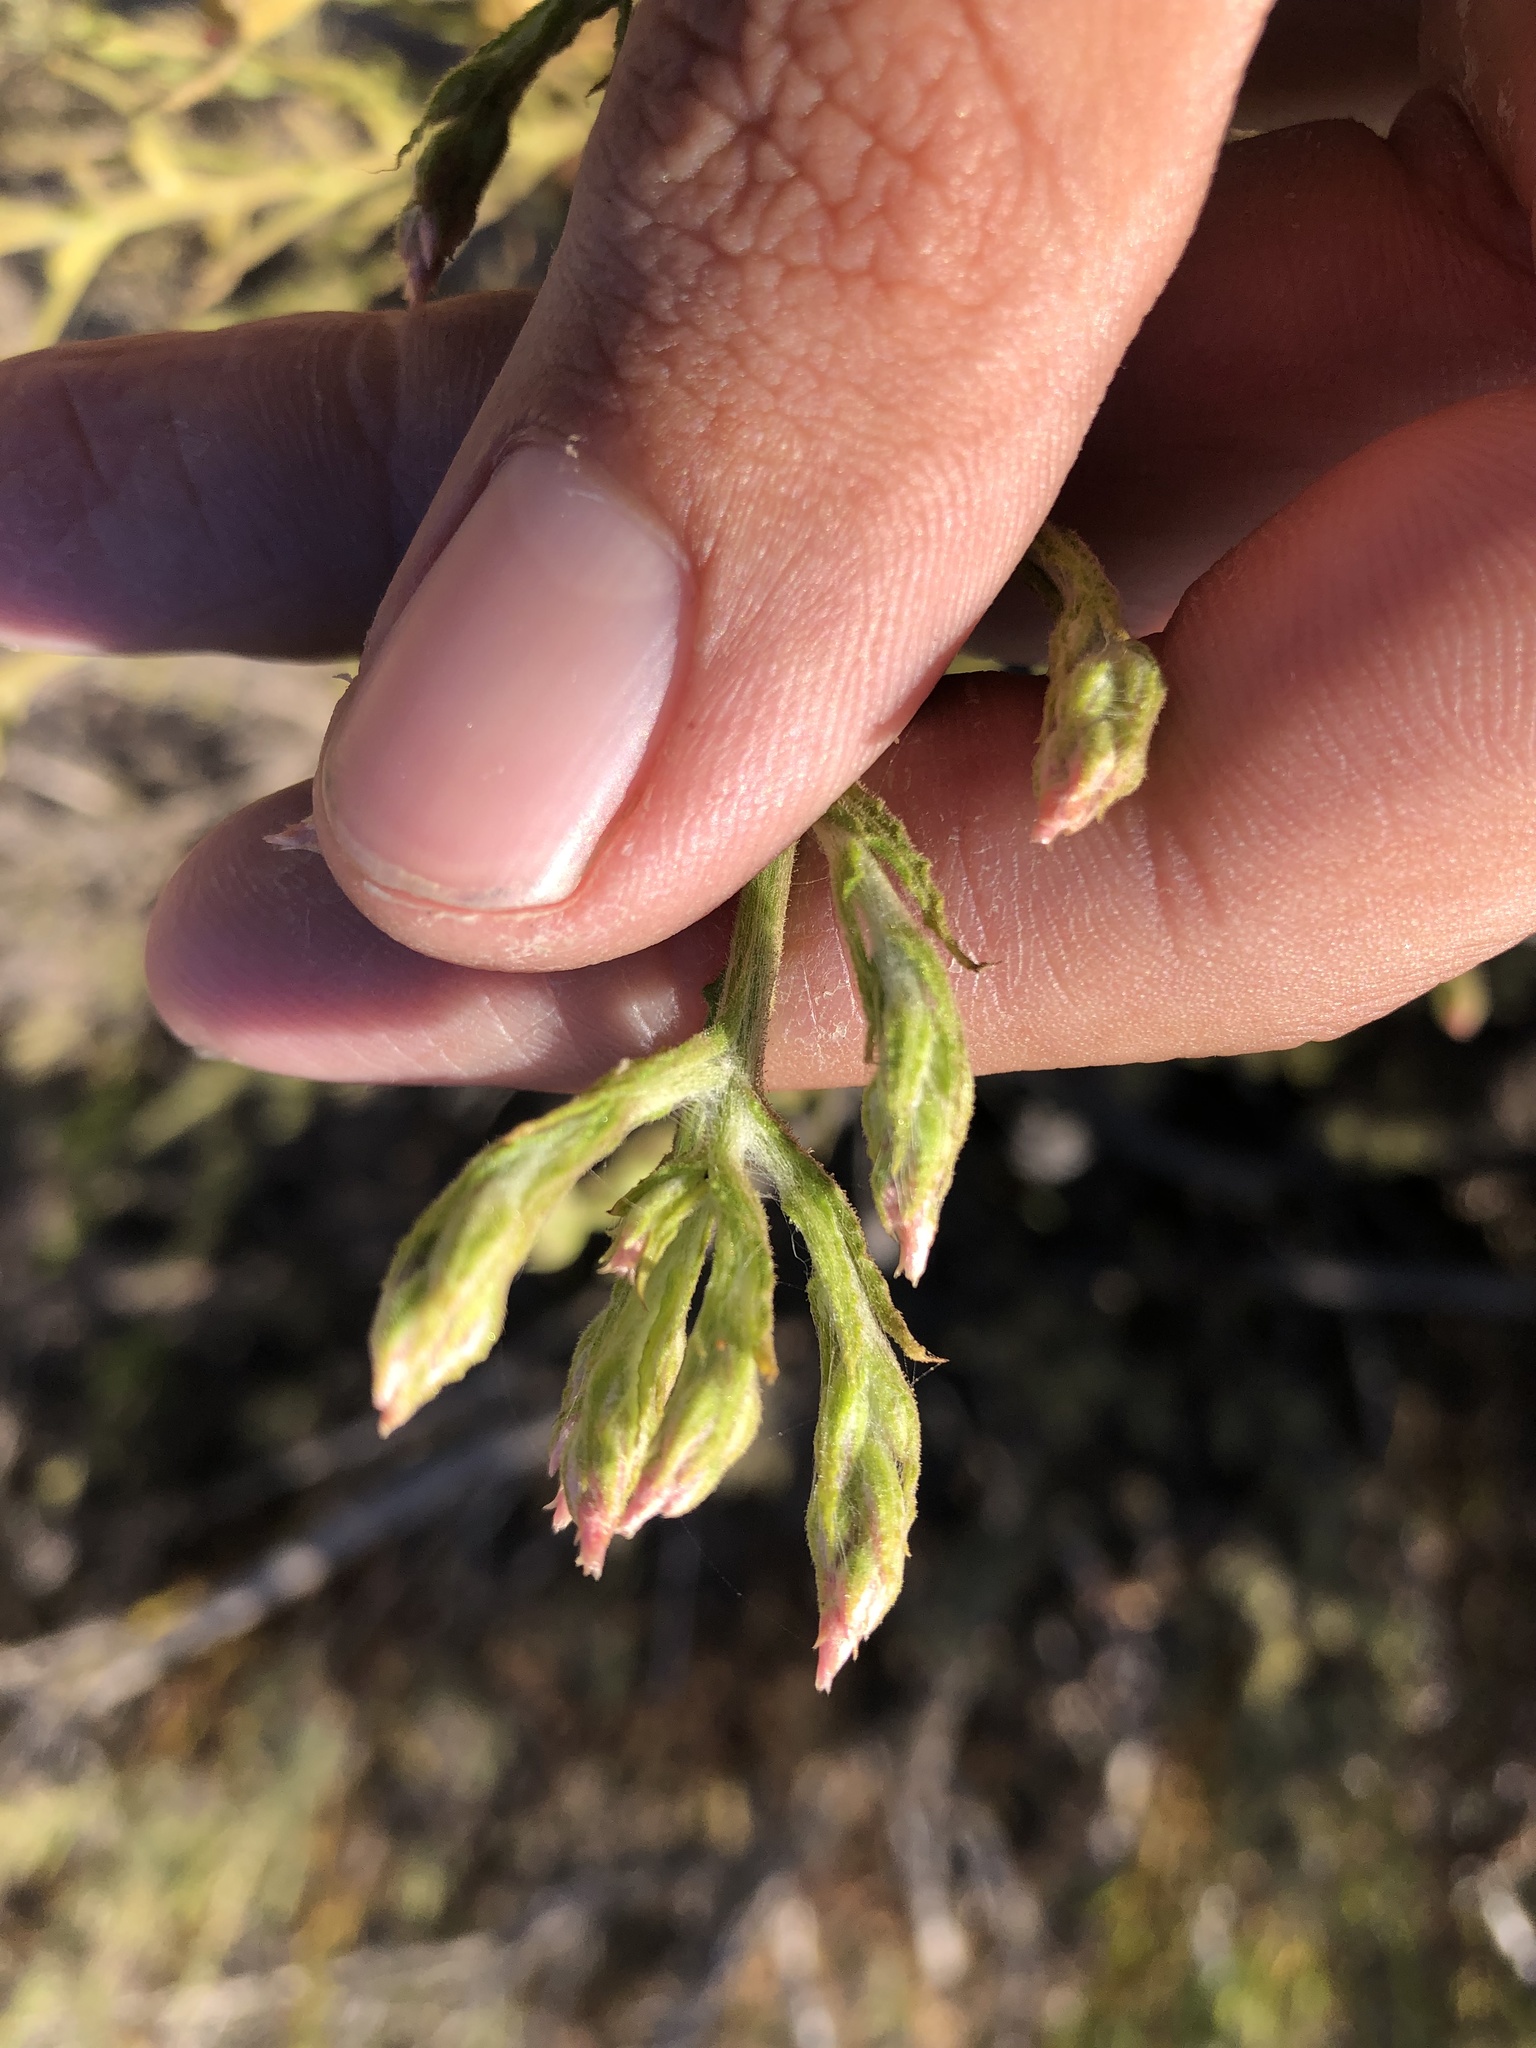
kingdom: Plantae
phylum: Tracheophyta
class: Magnoliopsida
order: Asterales
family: Asteraceae
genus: Pseudognaphalium
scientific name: Pseudognaphalium ramosissimum
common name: Pink rabbit-tobacco
